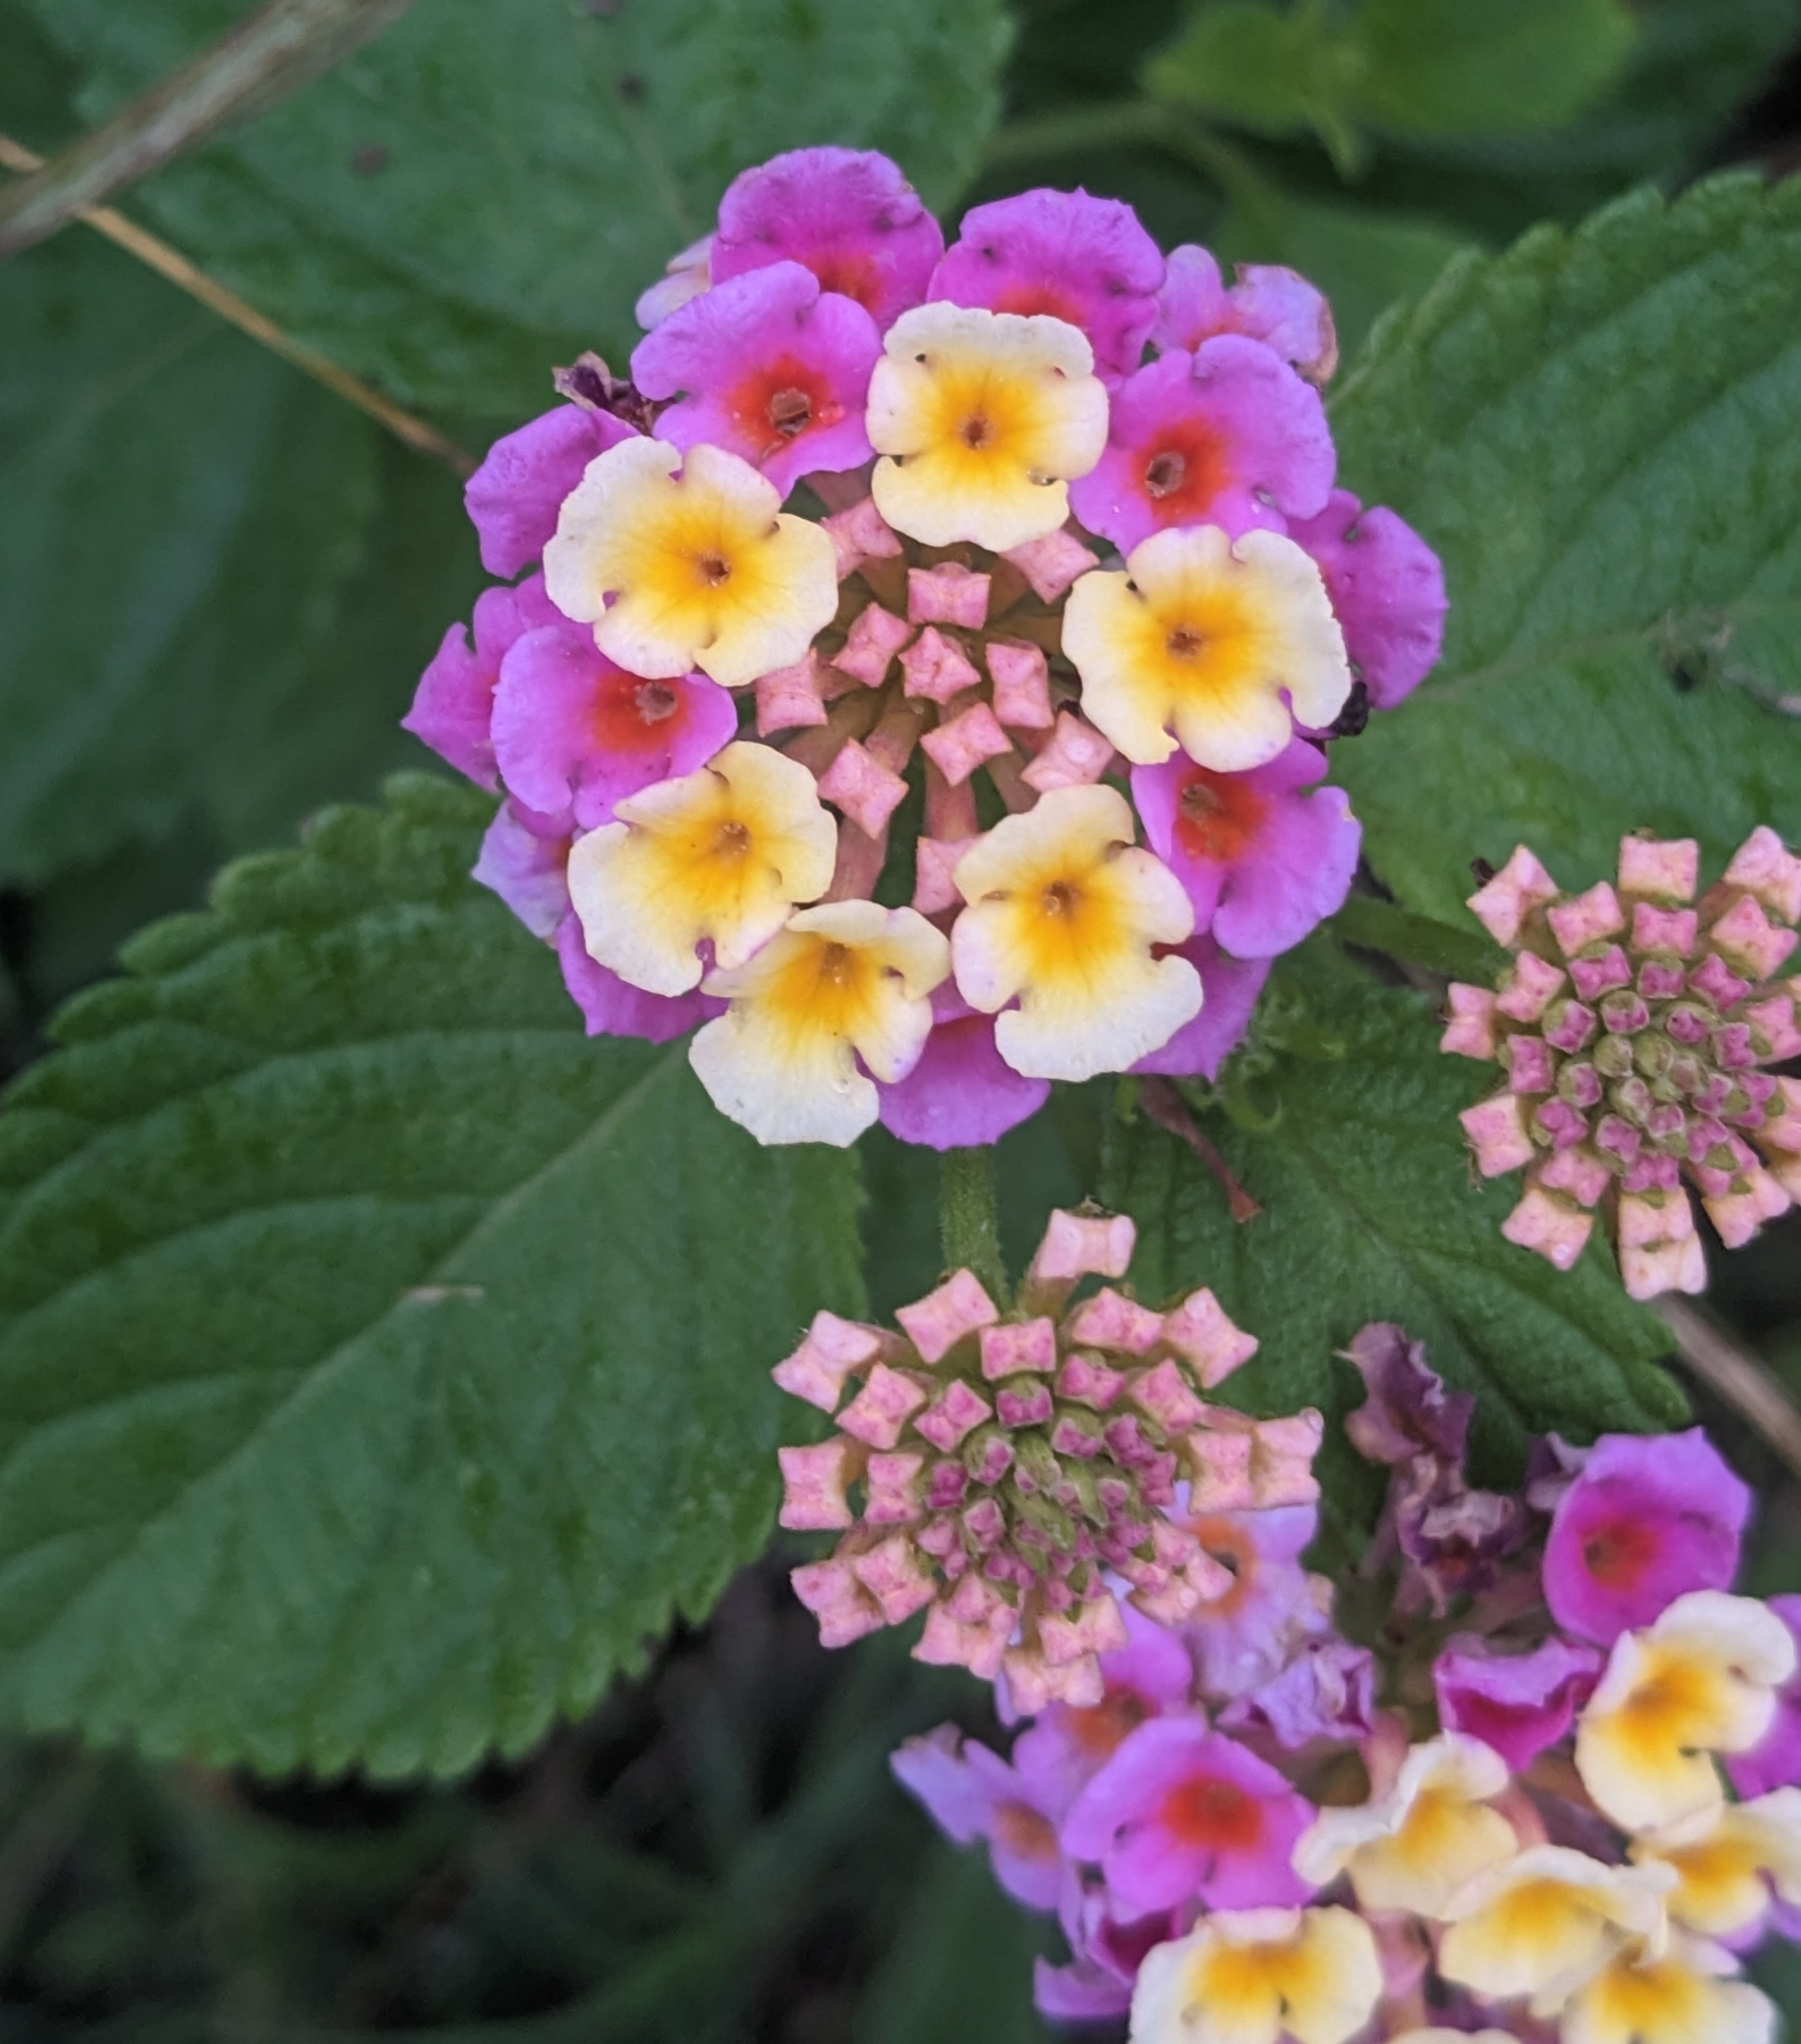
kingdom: Plantae
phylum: Tracheophyta
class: Magnoliopsida
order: Lamiales
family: Verbenaceae
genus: Lantana
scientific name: Lantana strigocamara
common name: Lantana
